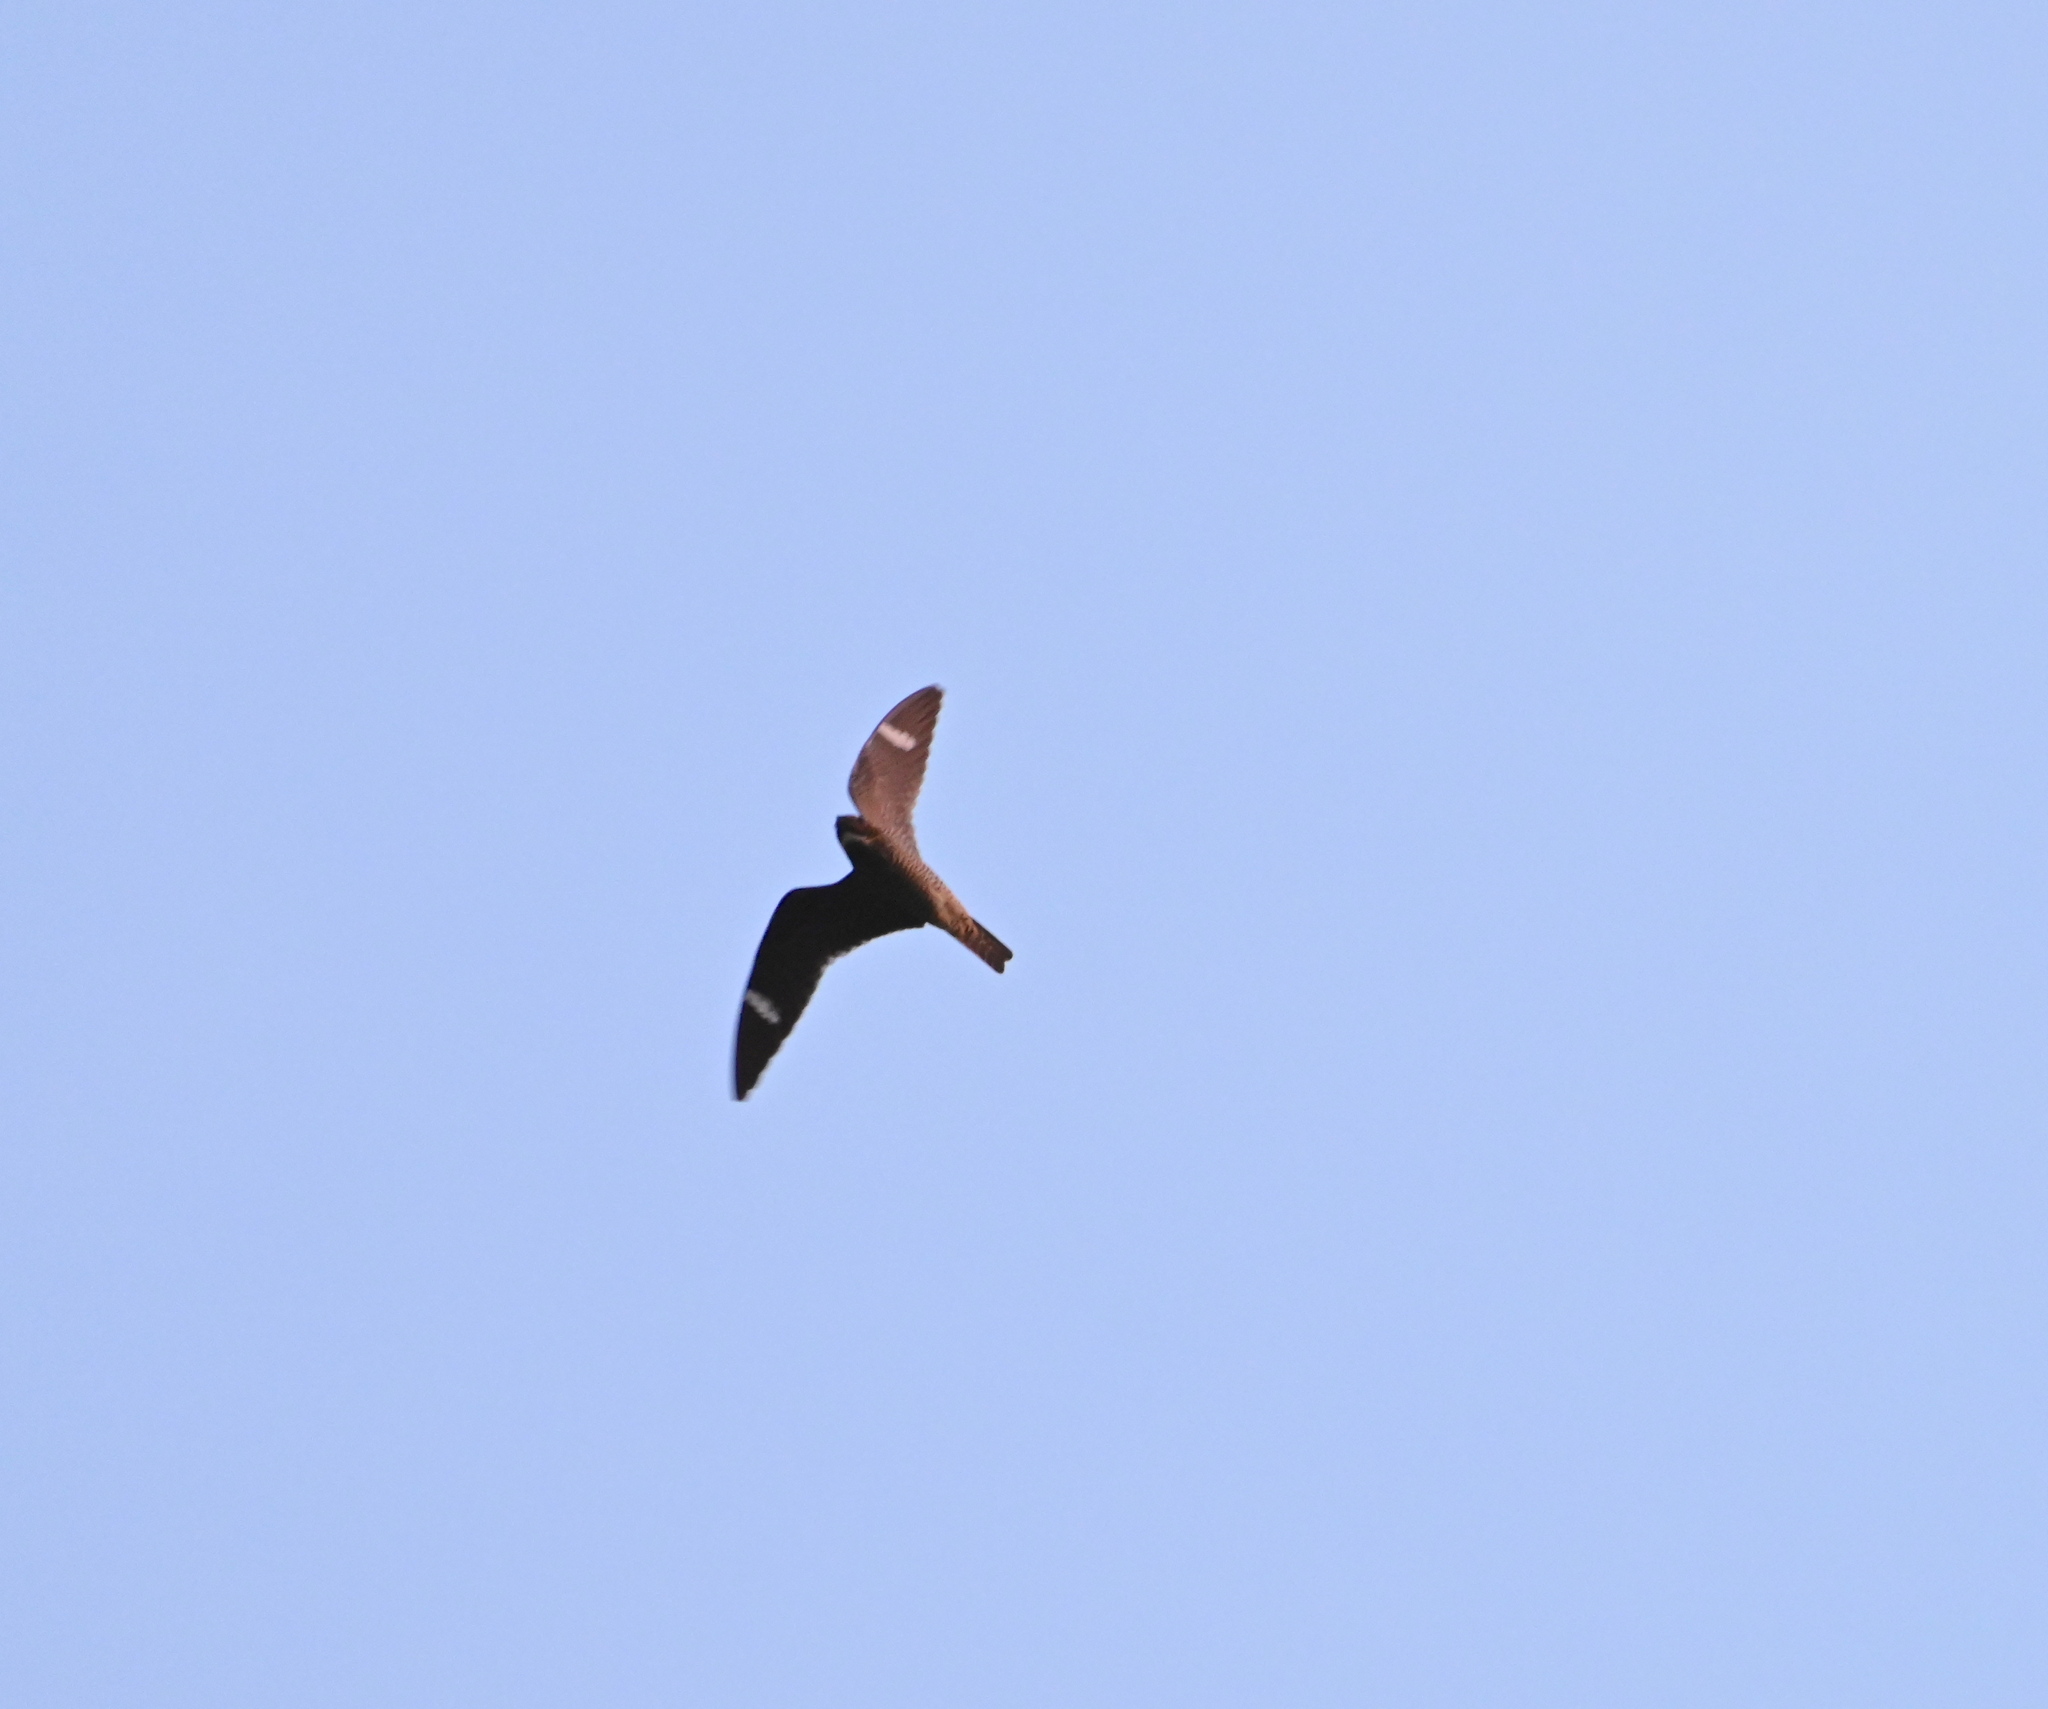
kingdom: Animalia
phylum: Chordata
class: Aves
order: Caprimulgiformes
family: Caprimulgidae
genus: Chordeiles
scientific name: Chordeiles minor
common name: Common nighthawk
